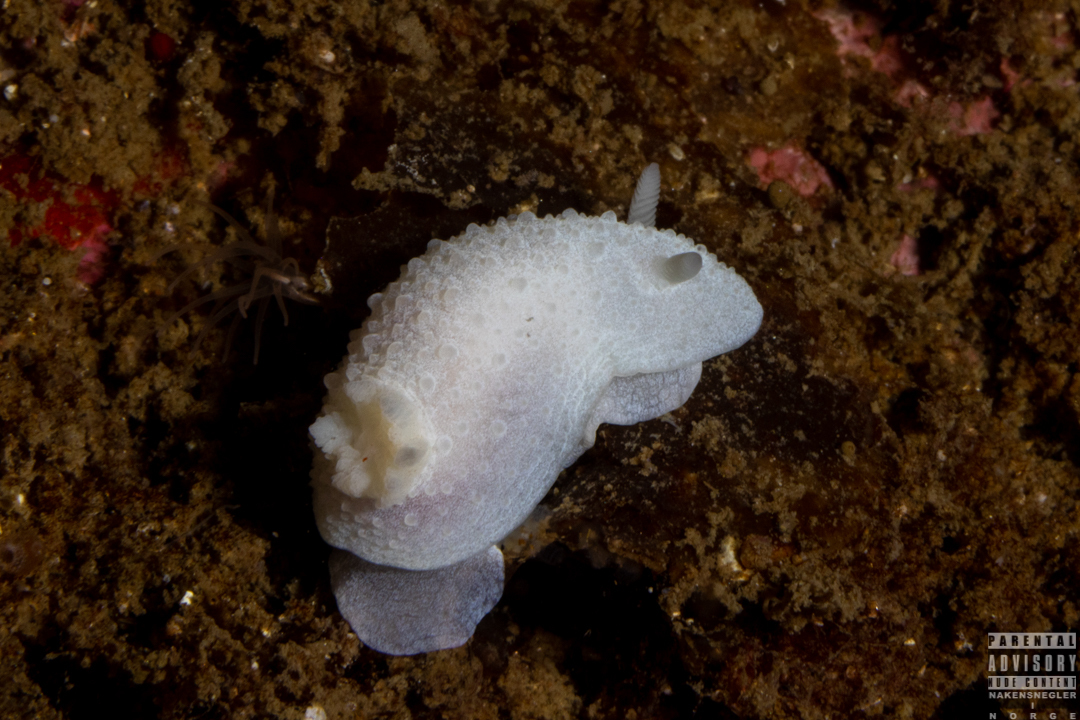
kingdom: Animalia
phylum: Mollusca
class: Gastropoda
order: Nudibranchia
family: Cadlinidae
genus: Aldisa
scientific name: Aldisa zetlandica
